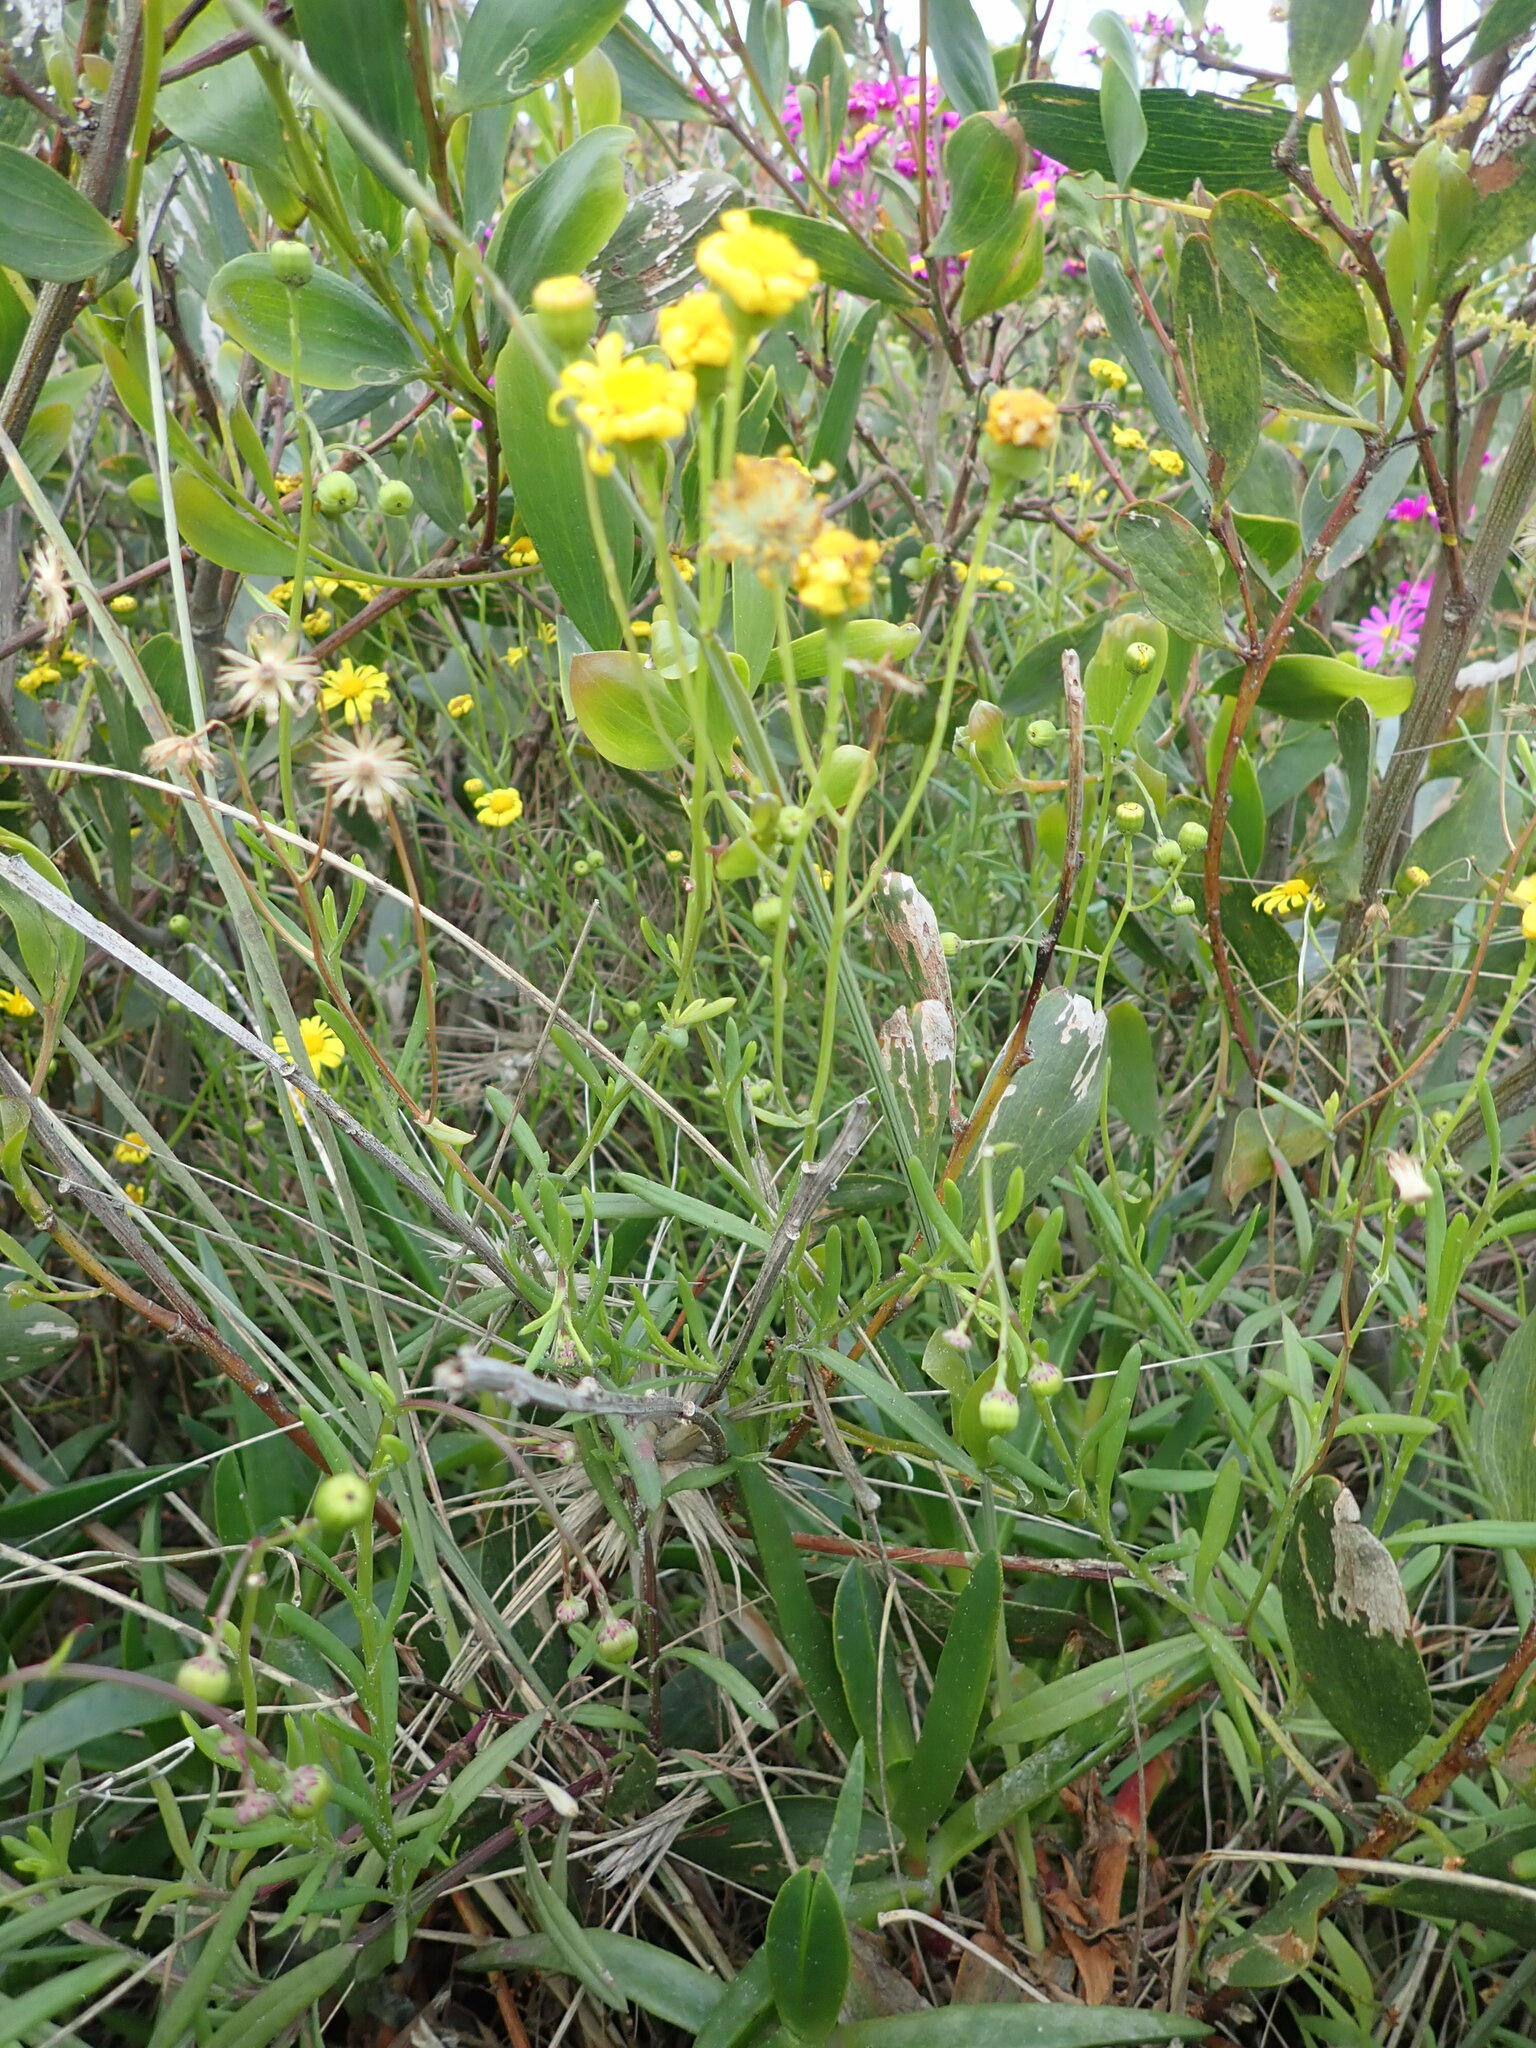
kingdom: Plantae
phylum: Tracheophyta
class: Magnoliopsida
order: Asterales
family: Asteraceae
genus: Senecio
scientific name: Senecio skirrhodon
